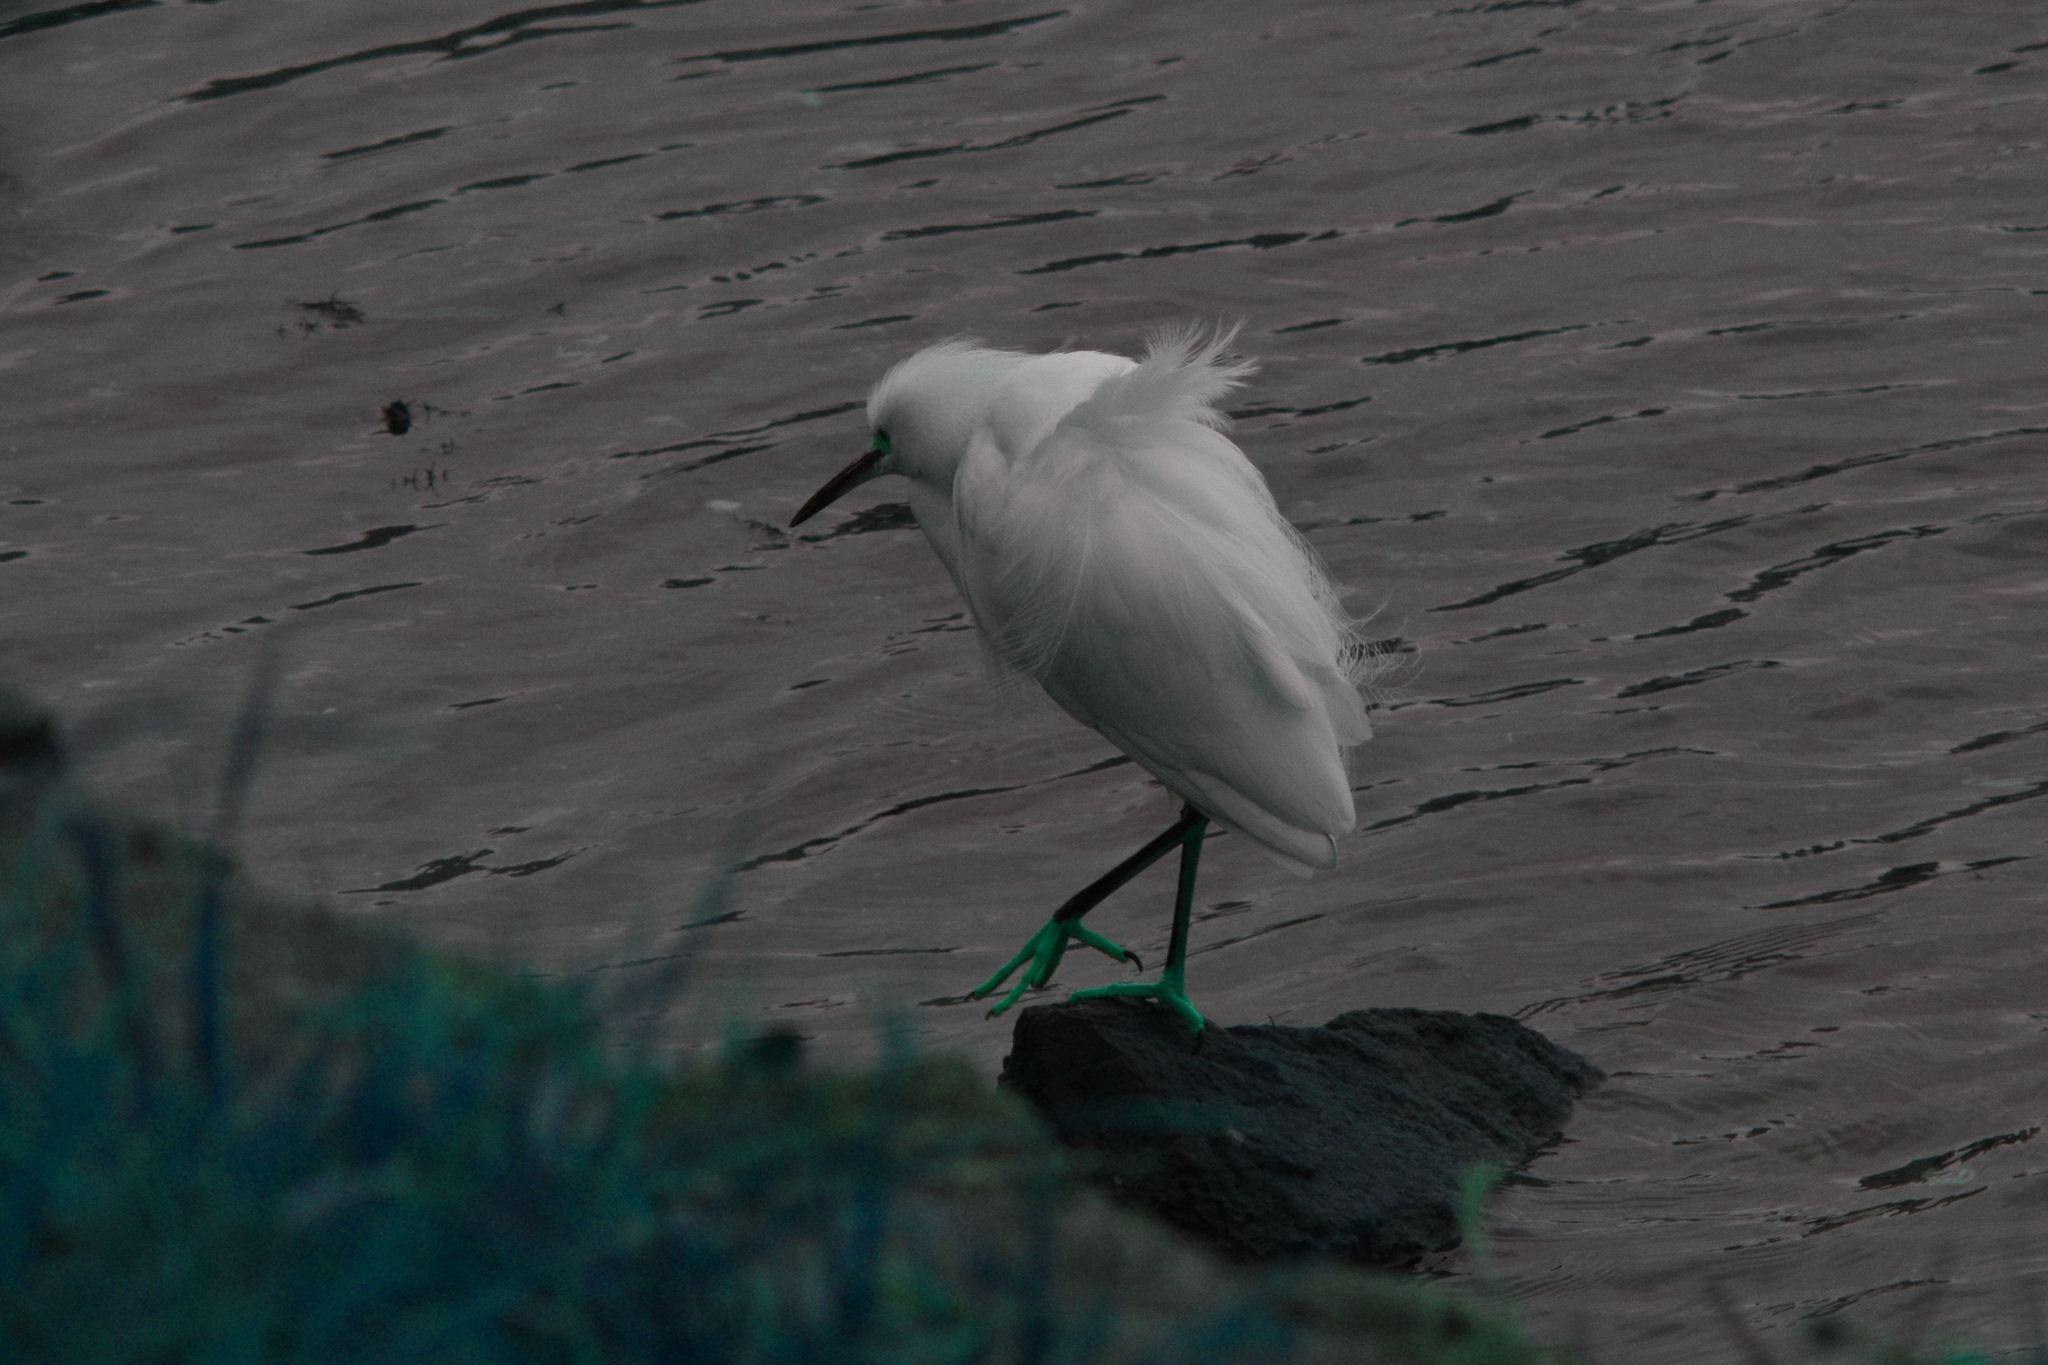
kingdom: Animalia
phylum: Chordata
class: Aves
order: Pelecaniformes
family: Ardeidae
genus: Egretta
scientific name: Egretta thula
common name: Snowy egret
